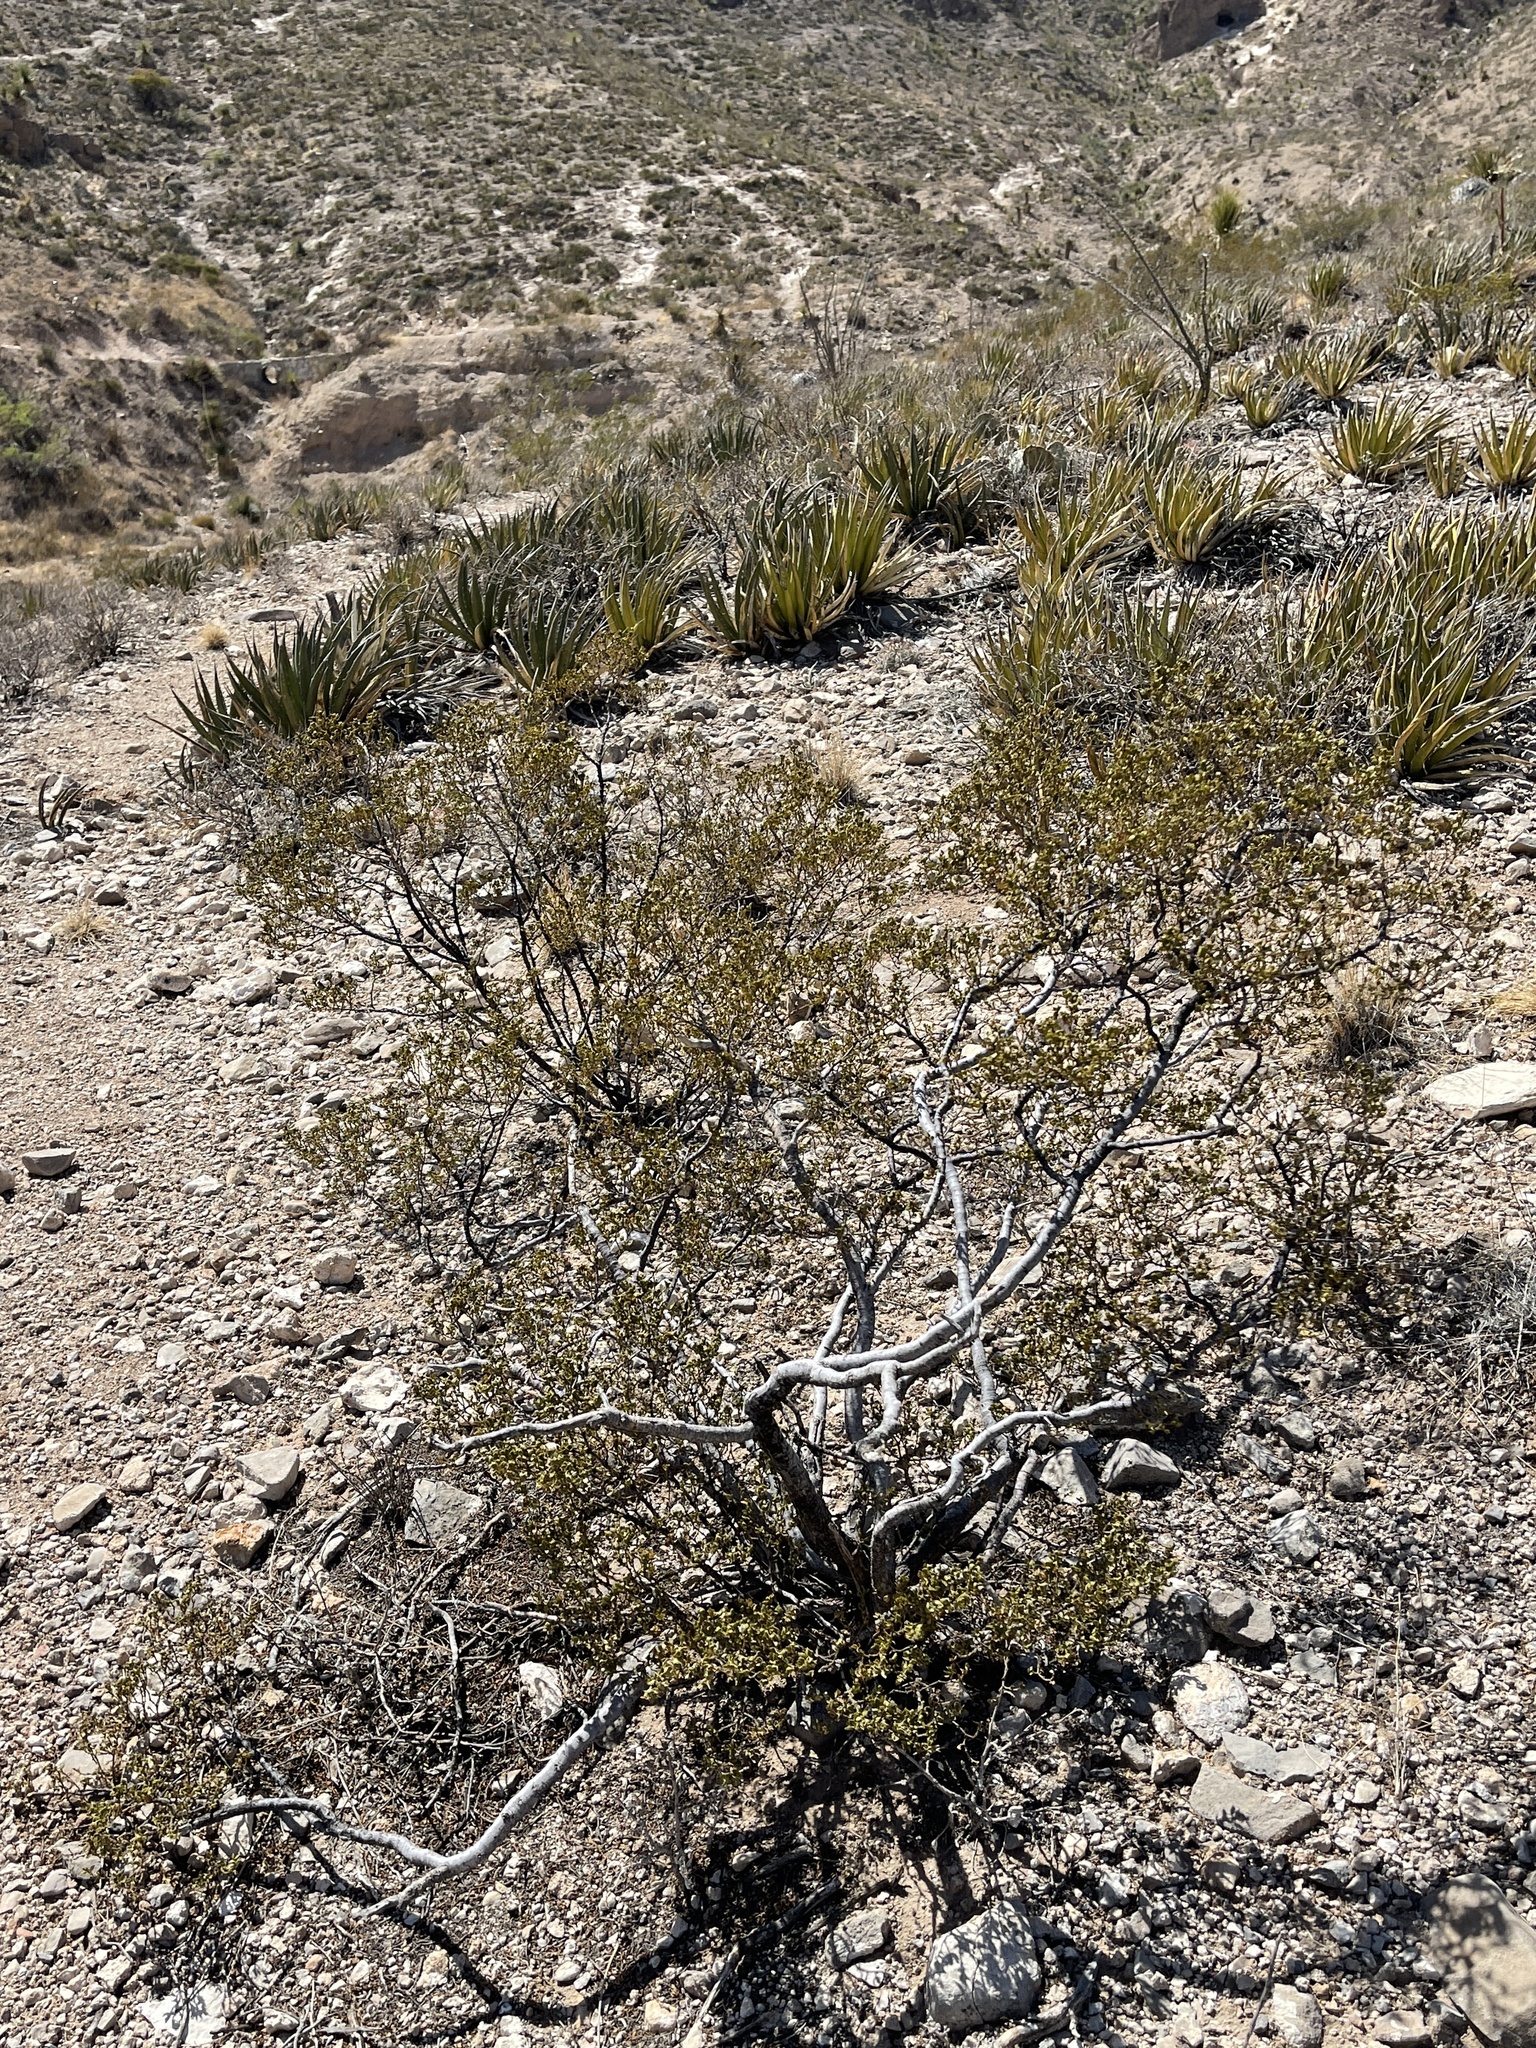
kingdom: Plantae
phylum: Tracheophyta
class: Magnoliopsida
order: Zygophyllales
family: Zygophyllaceae
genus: Larrea
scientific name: Larrea tridentata
